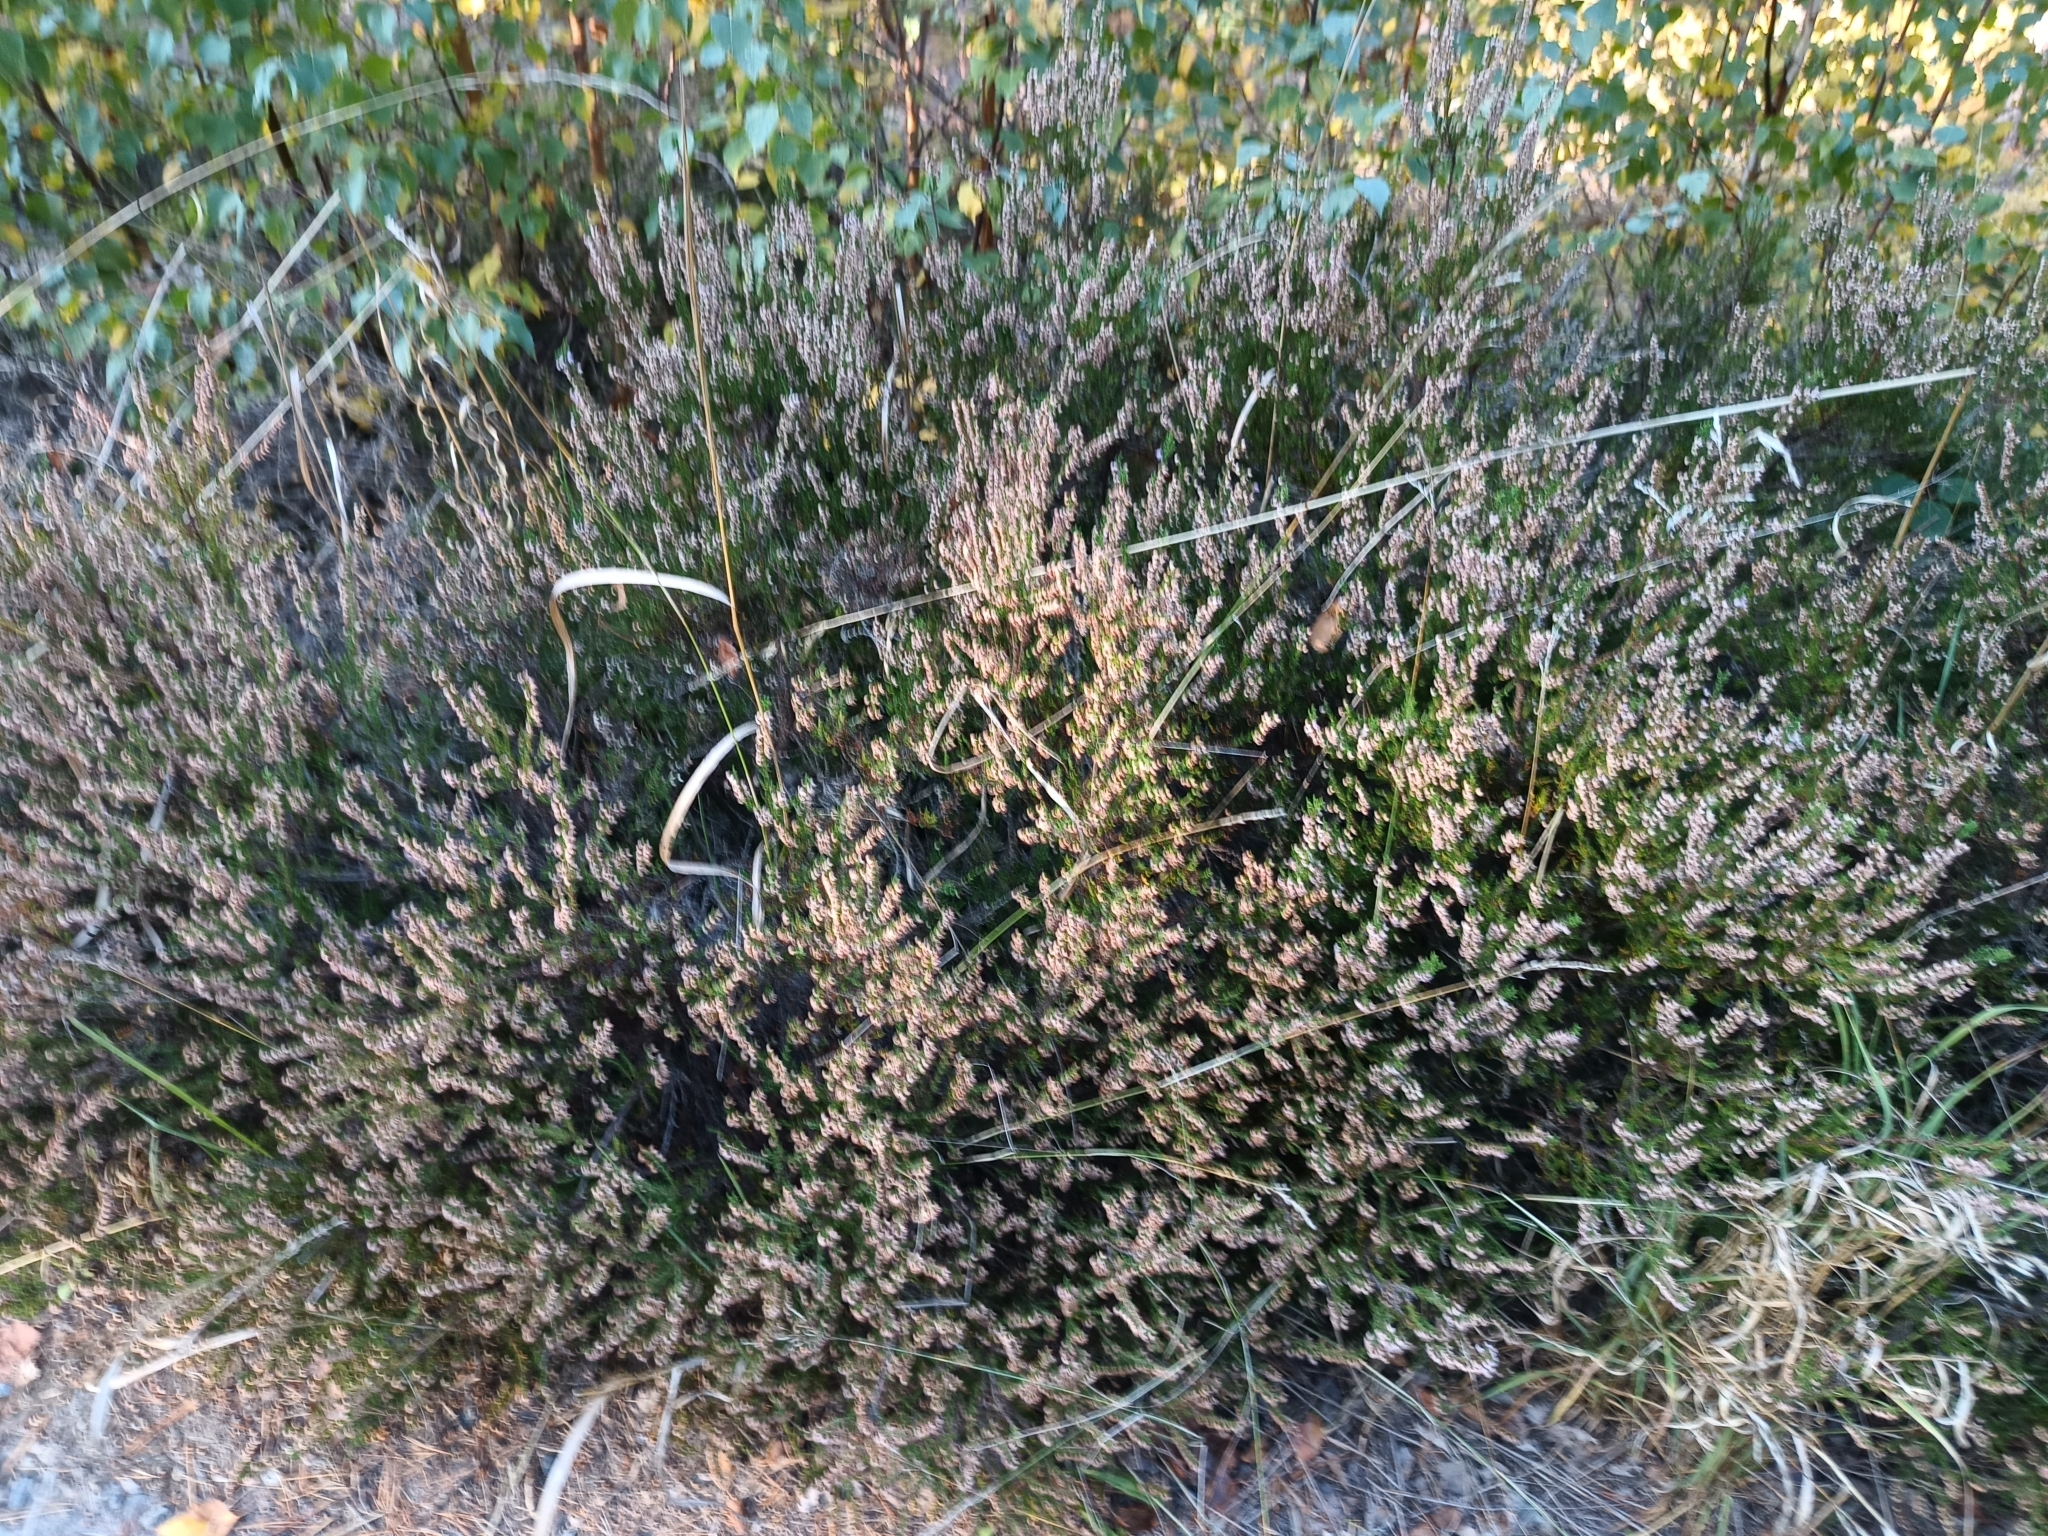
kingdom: Plantae
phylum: Tracheophyta
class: Magnoliopsida
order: Ericales
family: Ericaceae
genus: Calluna
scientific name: Calluna vulgaris
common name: Heather
